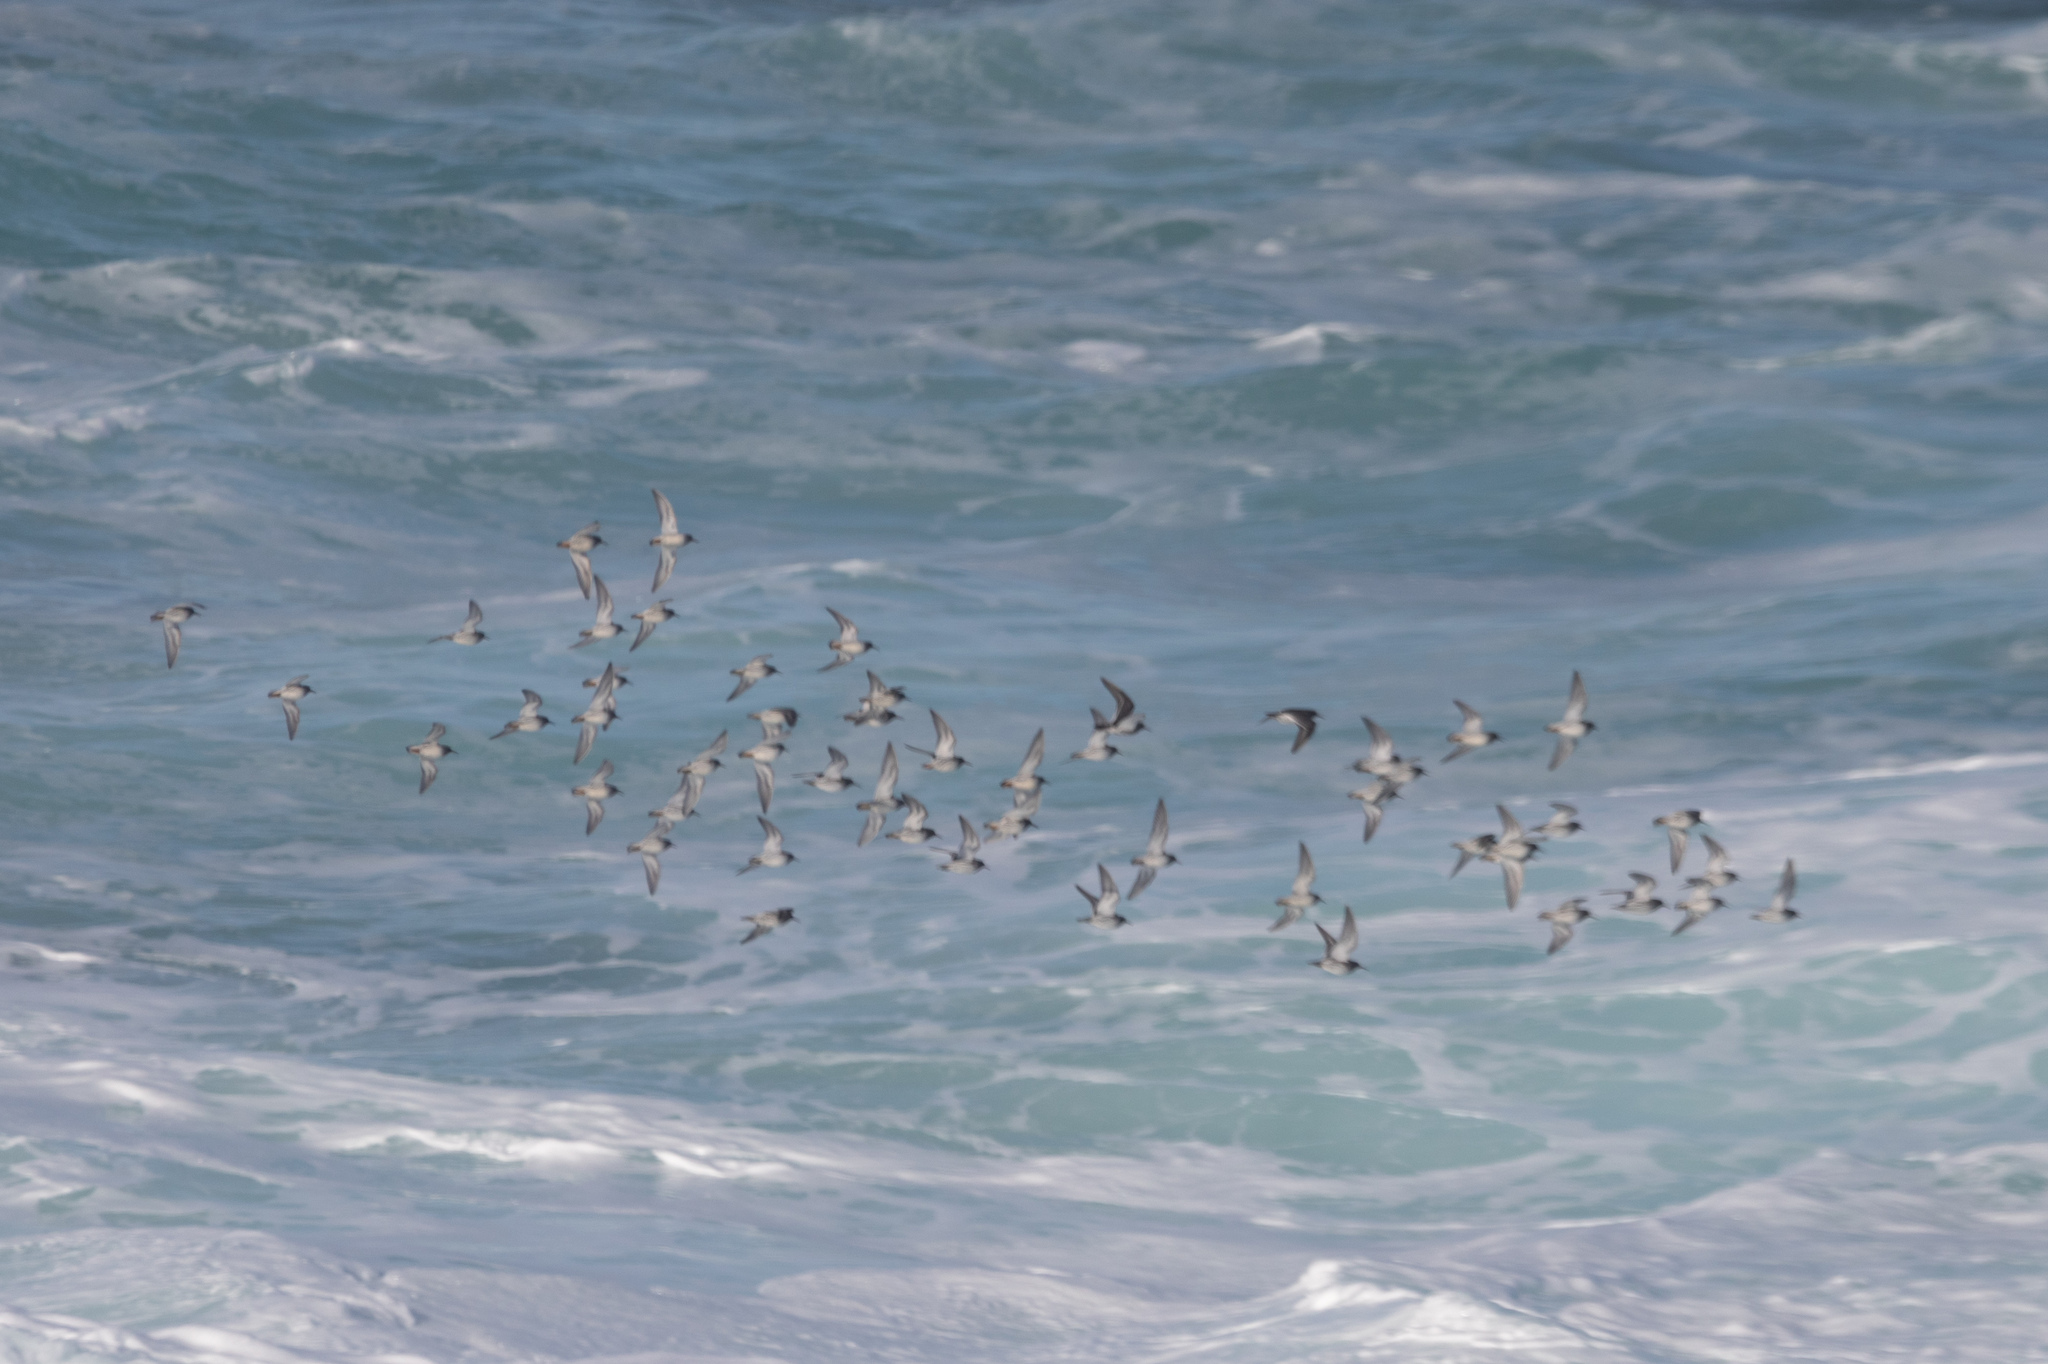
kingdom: Animalia
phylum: Chordata
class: Aves
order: Charadriiformes
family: Scolopacidae
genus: Calidris
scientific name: Calidris maritima
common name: Purple sandpiper
